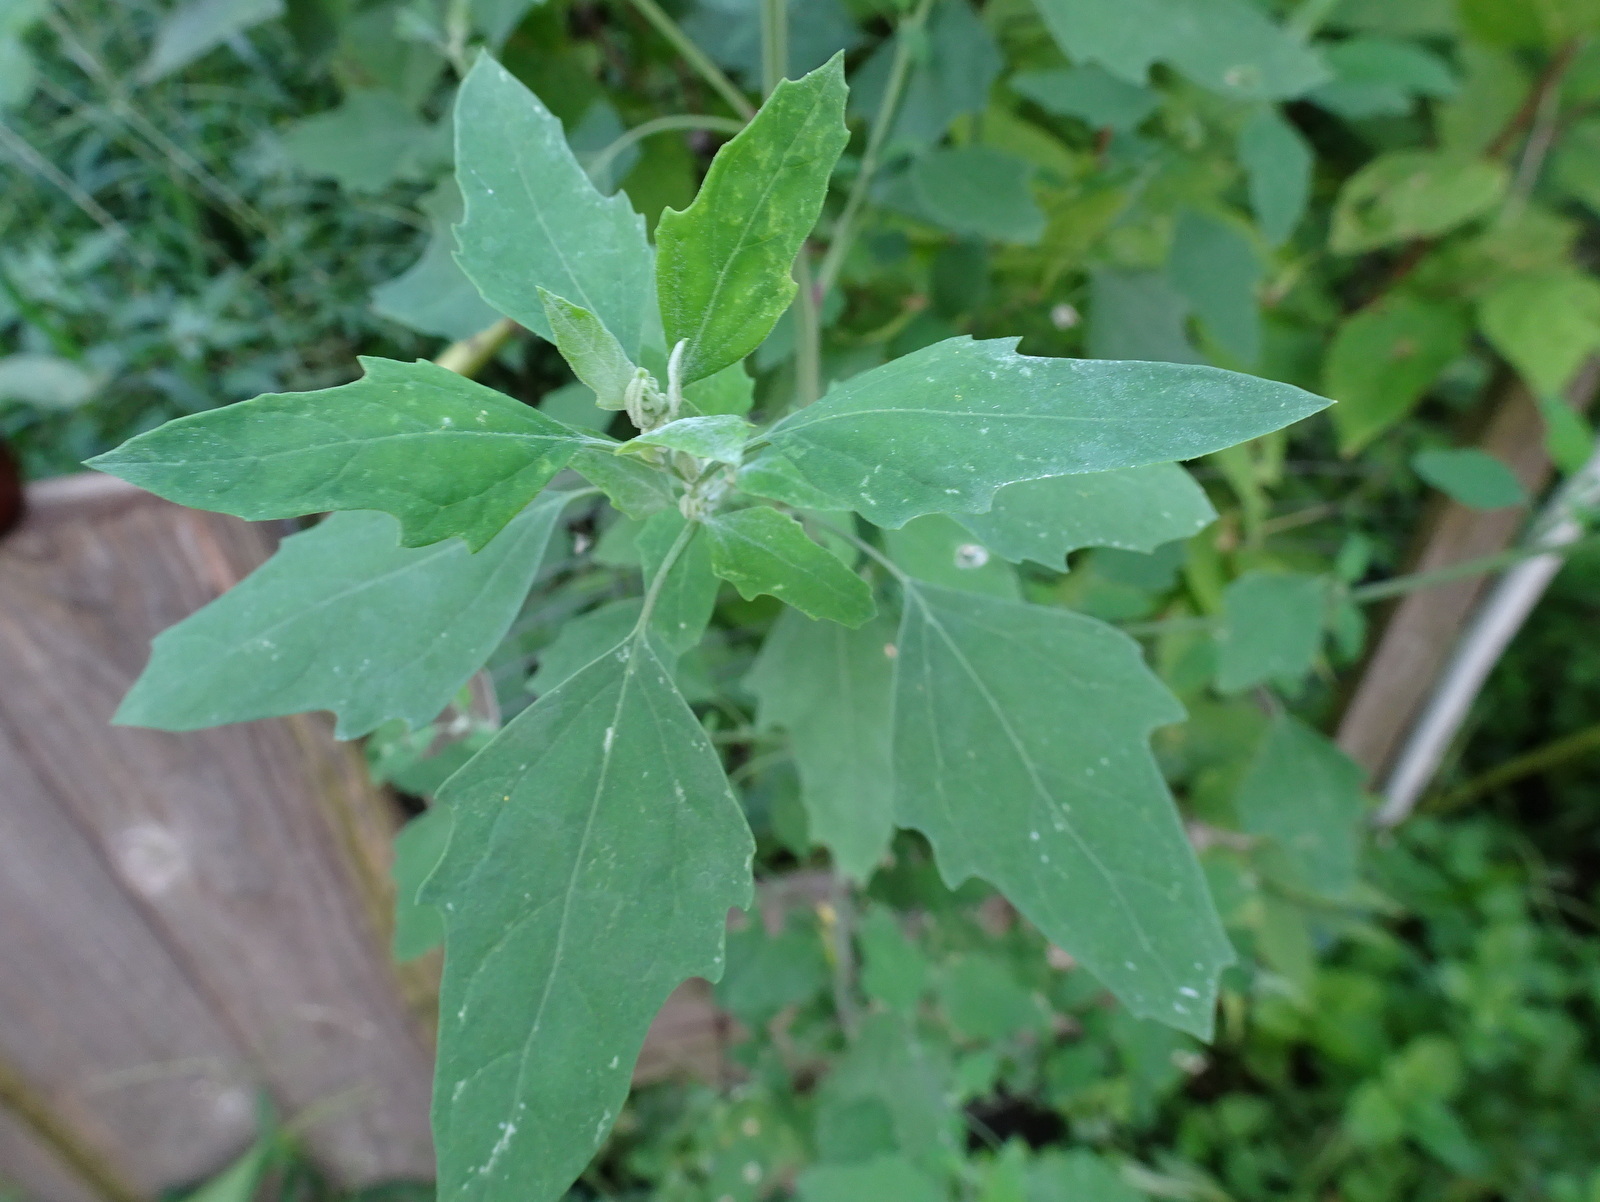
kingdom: Plantae
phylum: Tracheophyta
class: Magnoliopsida
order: Caryophyllales
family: Amaranthaceae
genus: Chenopodium
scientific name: Chenopodium album
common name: Fat-hen
